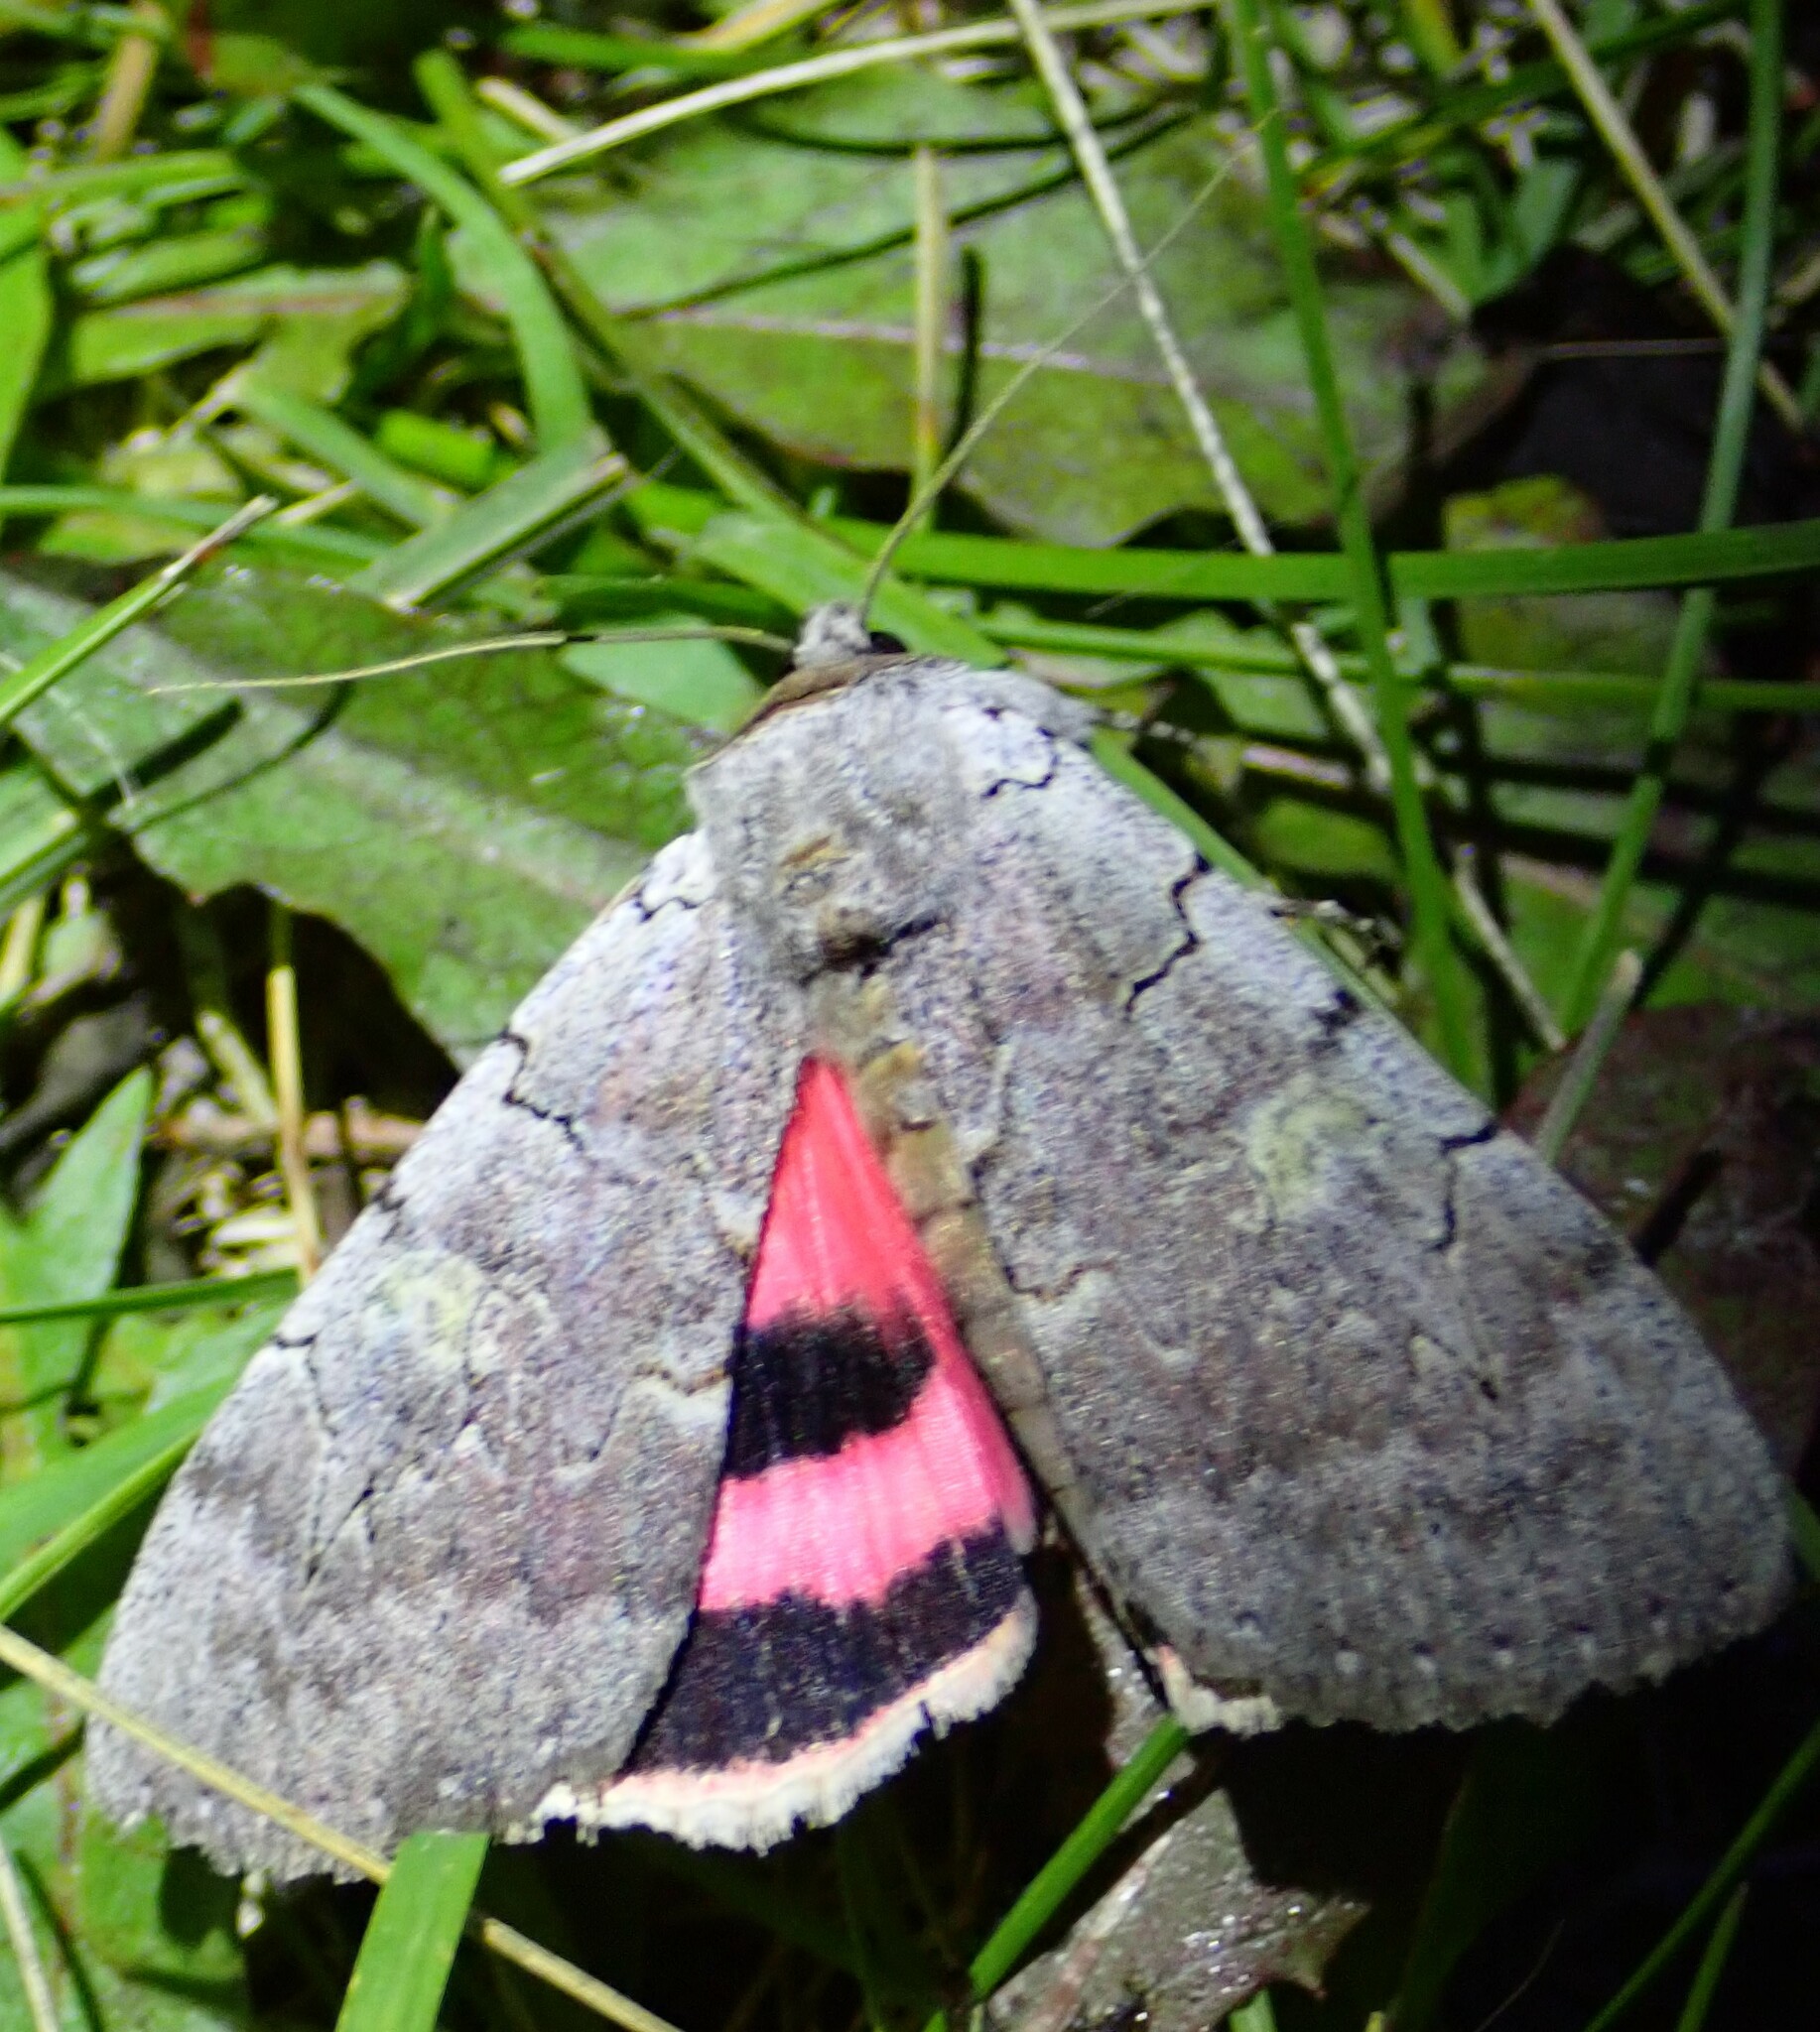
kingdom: Animalia
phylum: Arthropoda
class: Insecta
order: Lepidoptera
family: Erebidae
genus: Catocala
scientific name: Catocala concumbens
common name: Pink underwing
